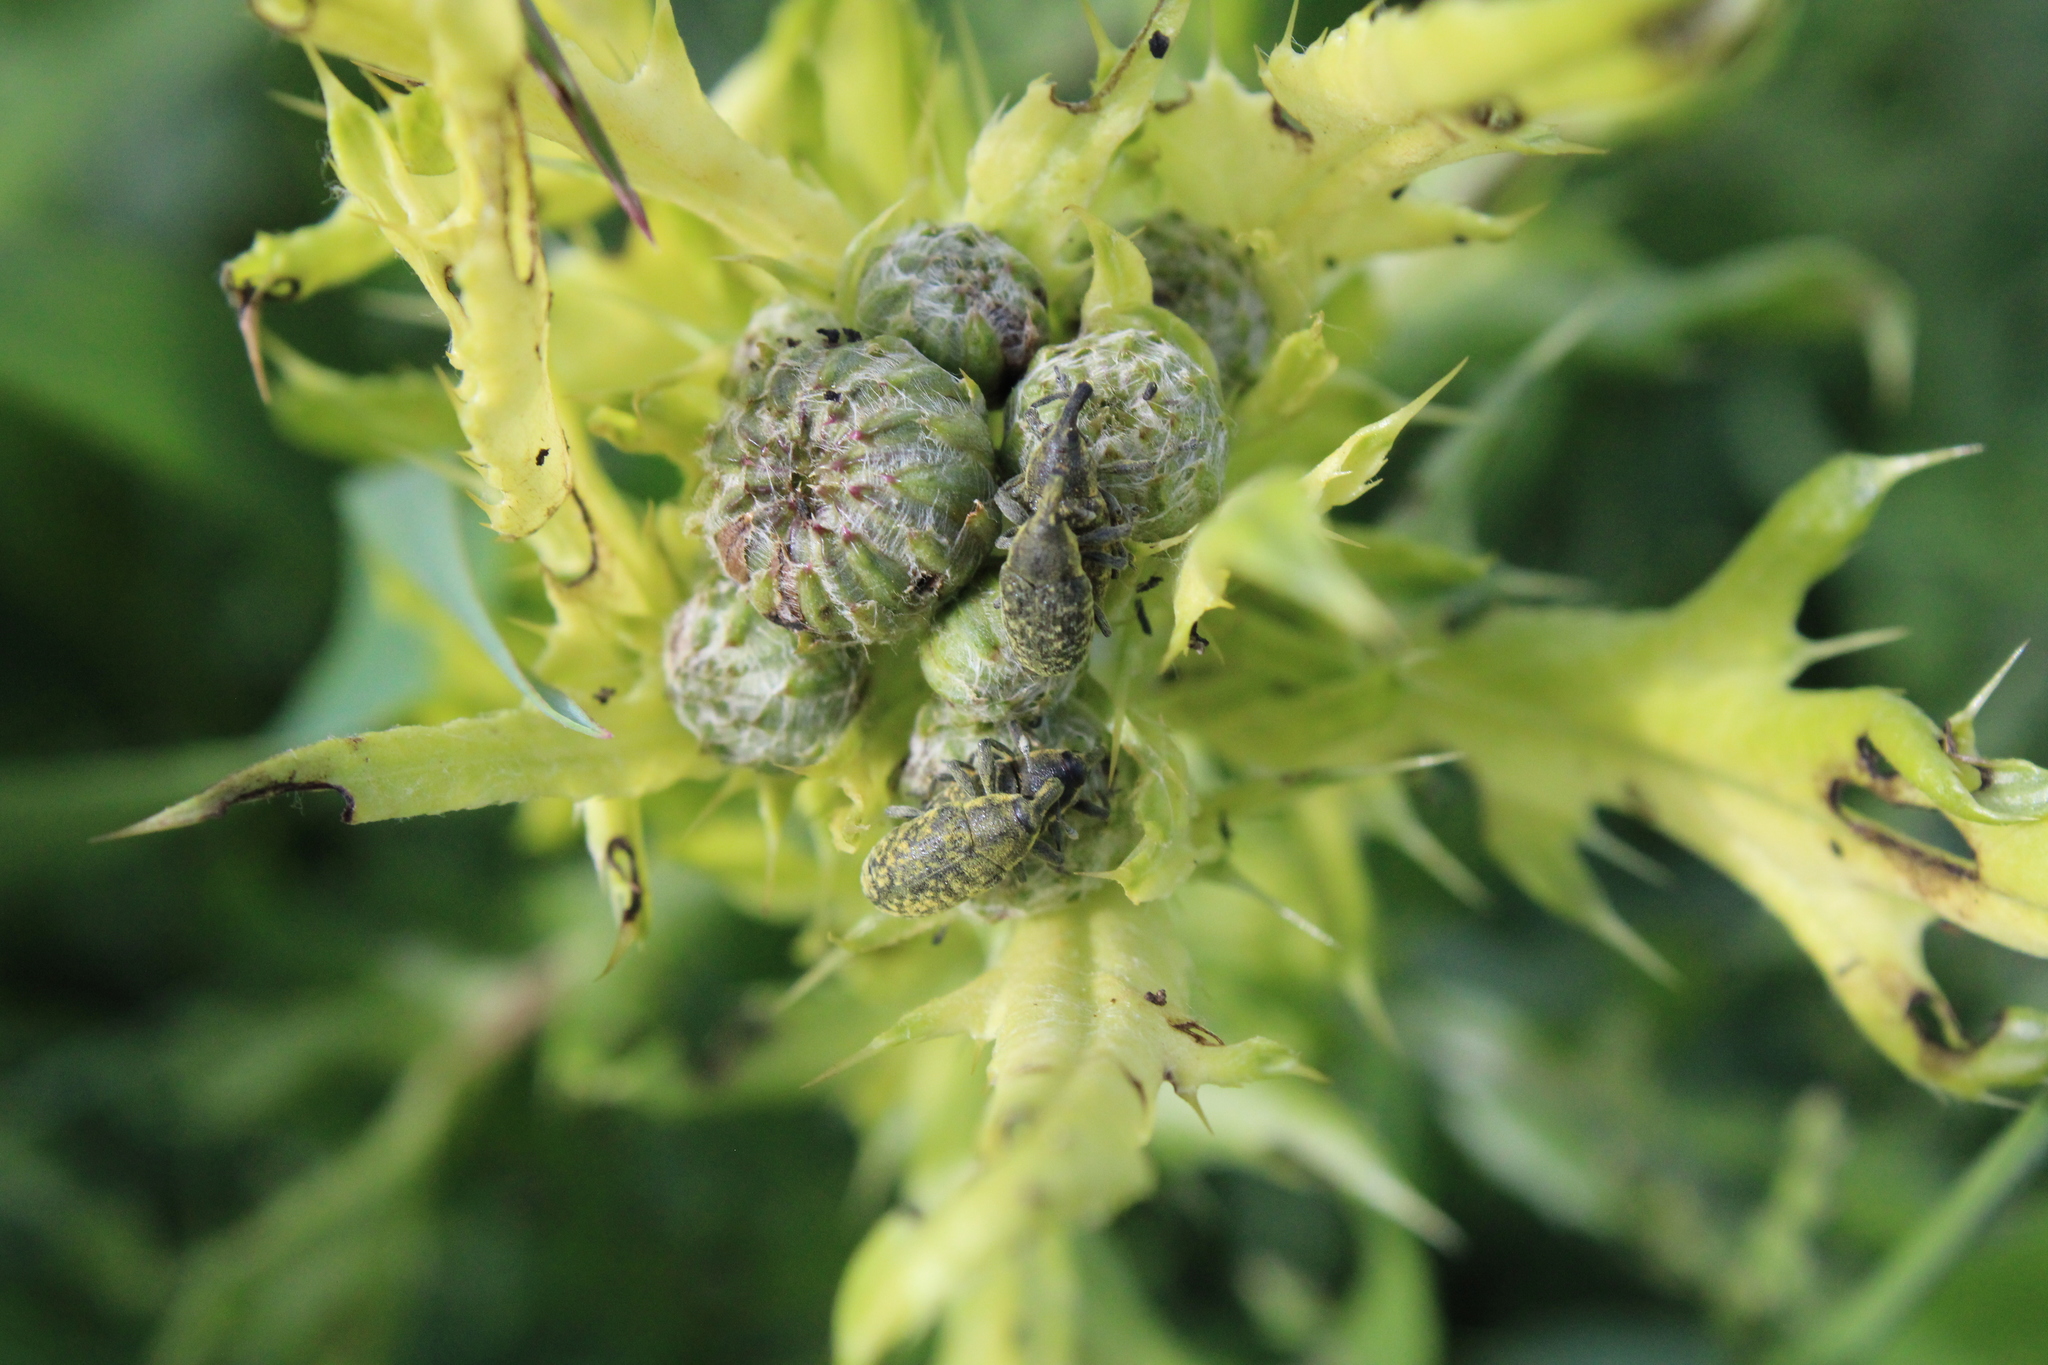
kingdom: Animalia
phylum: Arthropoda
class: Insecta
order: Coleoptera
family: Curculionidae
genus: Larinus
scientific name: Larinus carlinae
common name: Weevil
